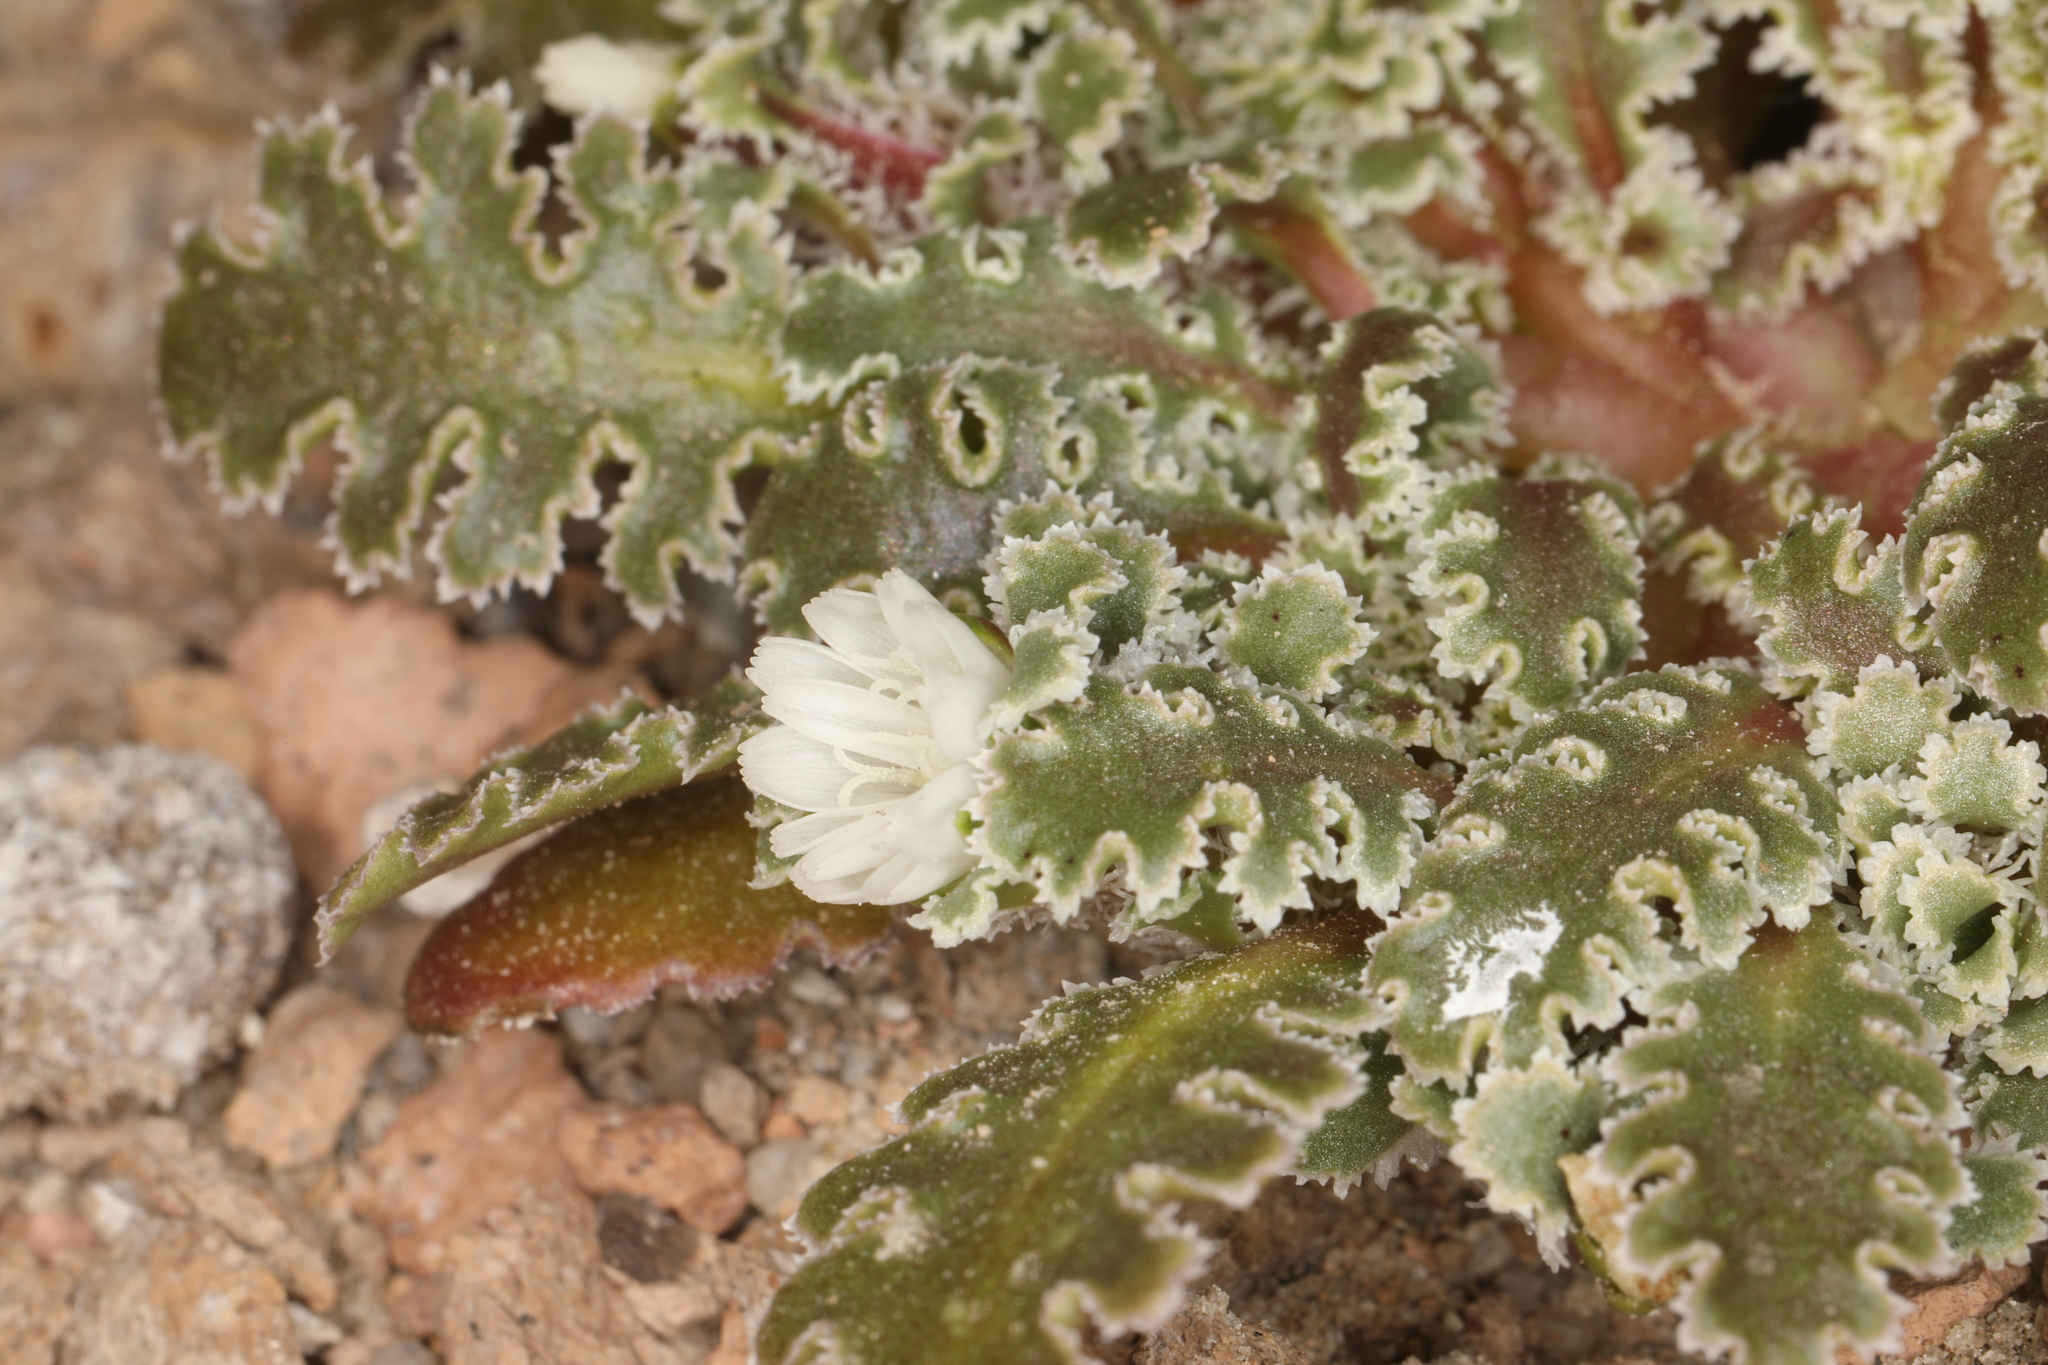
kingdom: Plantae
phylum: Tracheophyta
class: Magnoliopsida
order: Asterales
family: Asteraceae
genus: Glyptopleura
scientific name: Glyptopleura marginata
